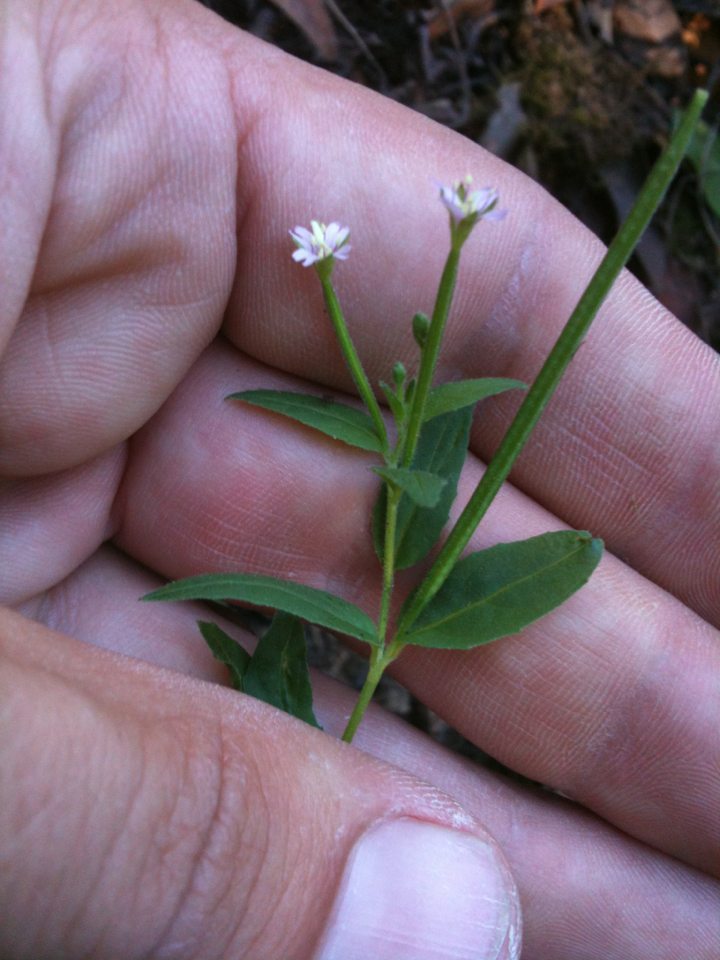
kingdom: Plantae
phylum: Tracheophyta
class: Magnoliopsida
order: Myrtales
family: Onagraceae
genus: Epilobium
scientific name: Epilobium ciliatum
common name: American willowherb
